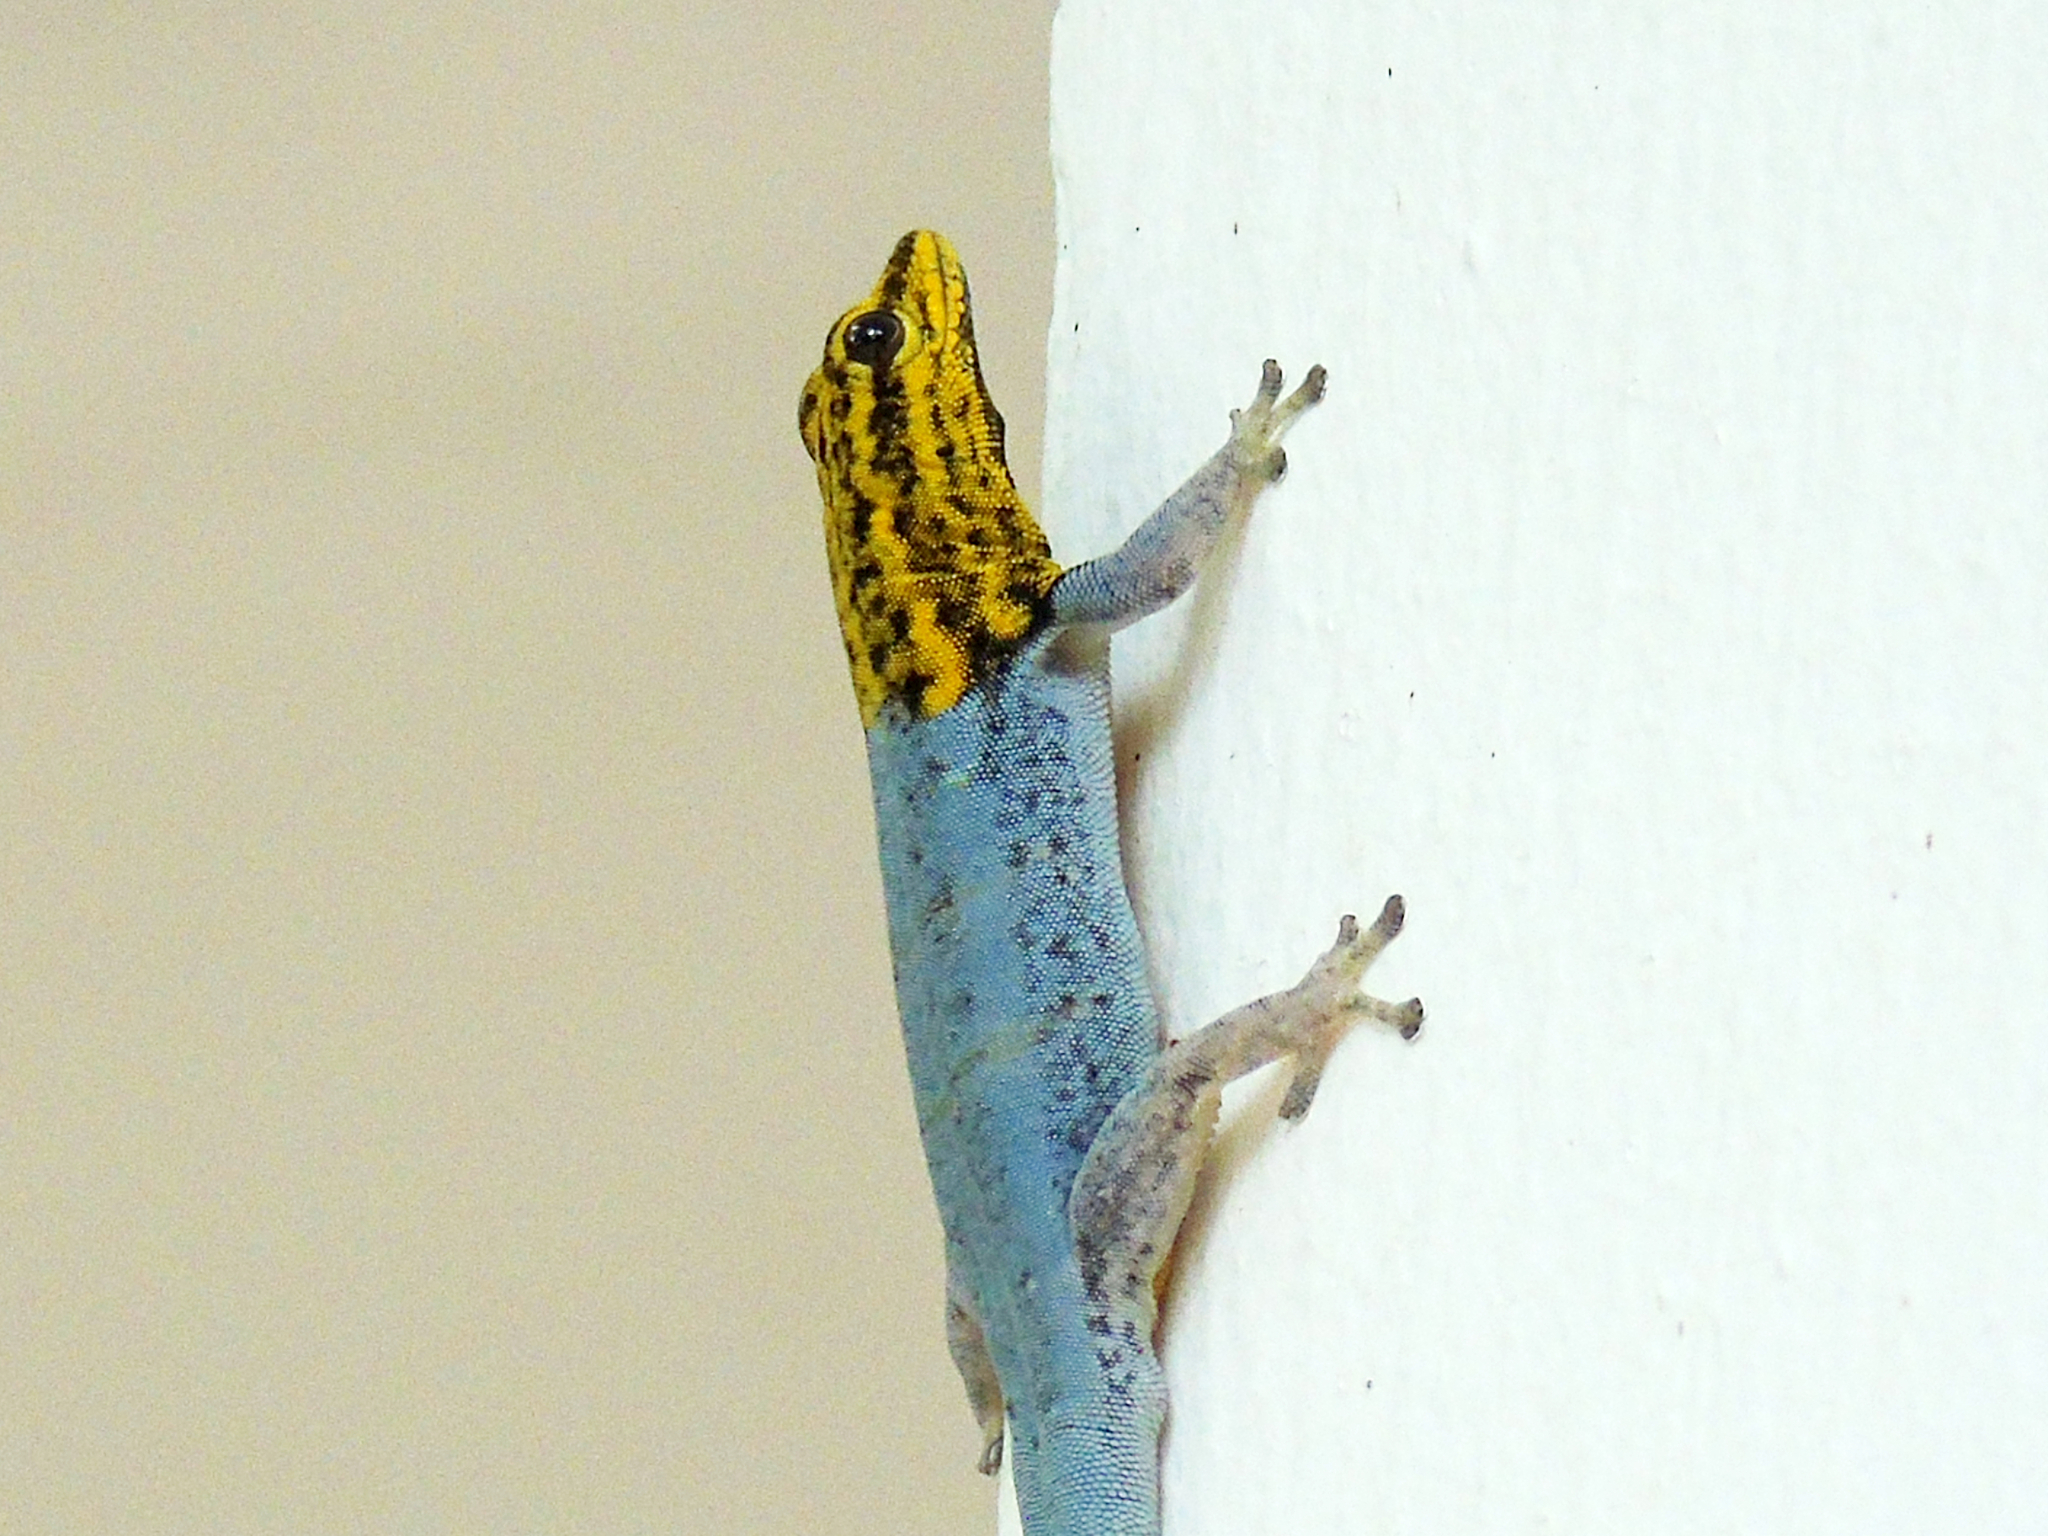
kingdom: Animalia
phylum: Chordata
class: Squamata
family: Gekkonidae
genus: Lygodactylus
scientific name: Lygodactylus picturatus
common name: Painted dwarf gecko
